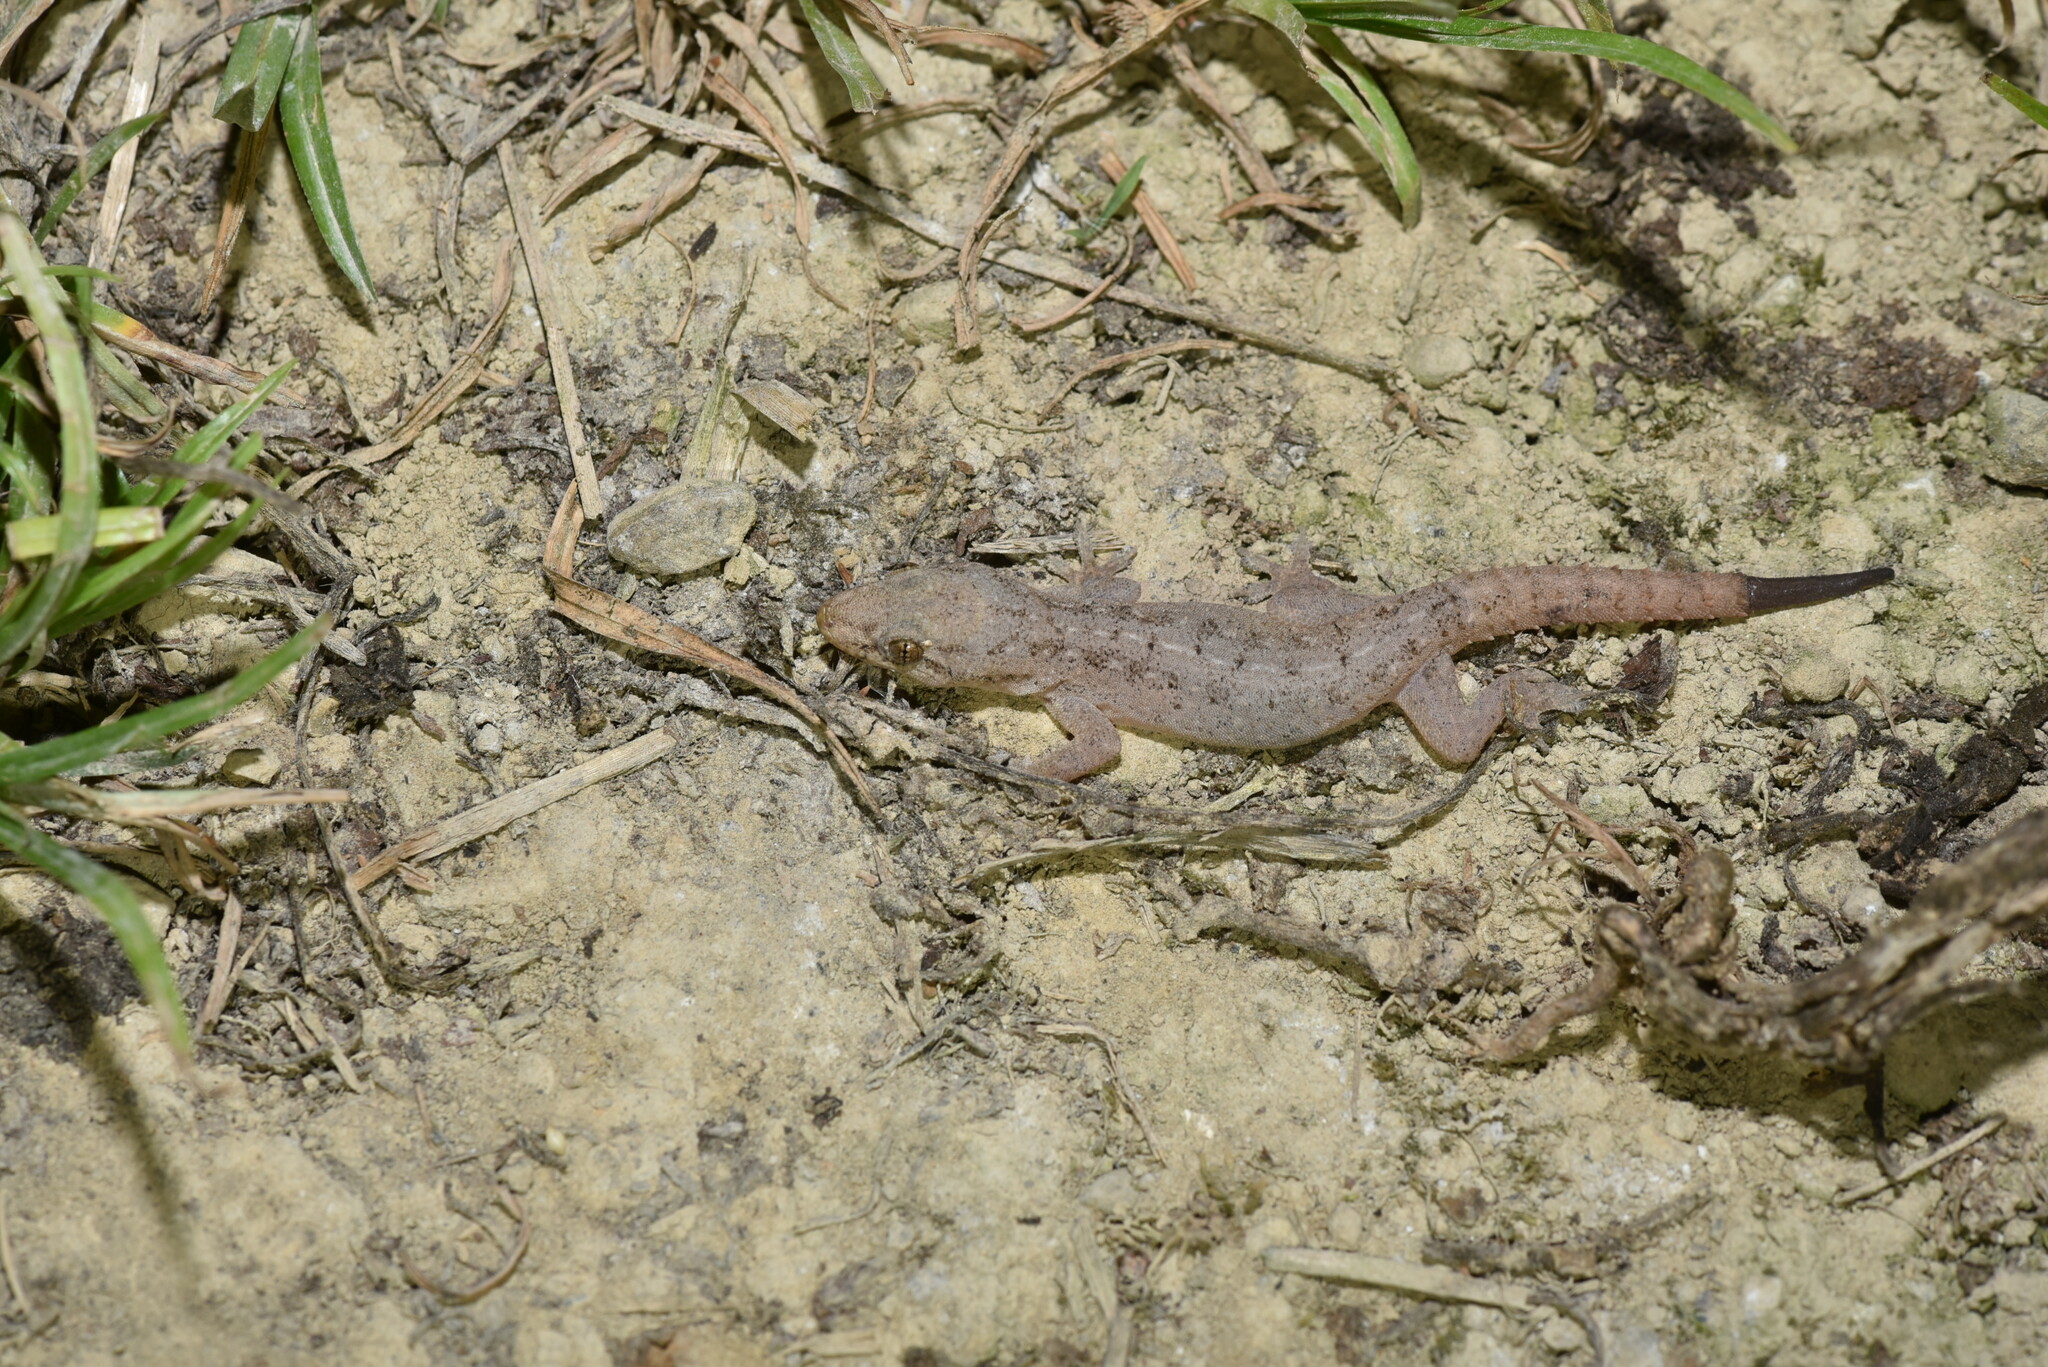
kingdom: Animalia
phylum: Chordata
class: Squamata
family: Gekkonidae
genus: Hemidactylus
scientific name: Hemidactylus frenatus
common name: Common house gecko
